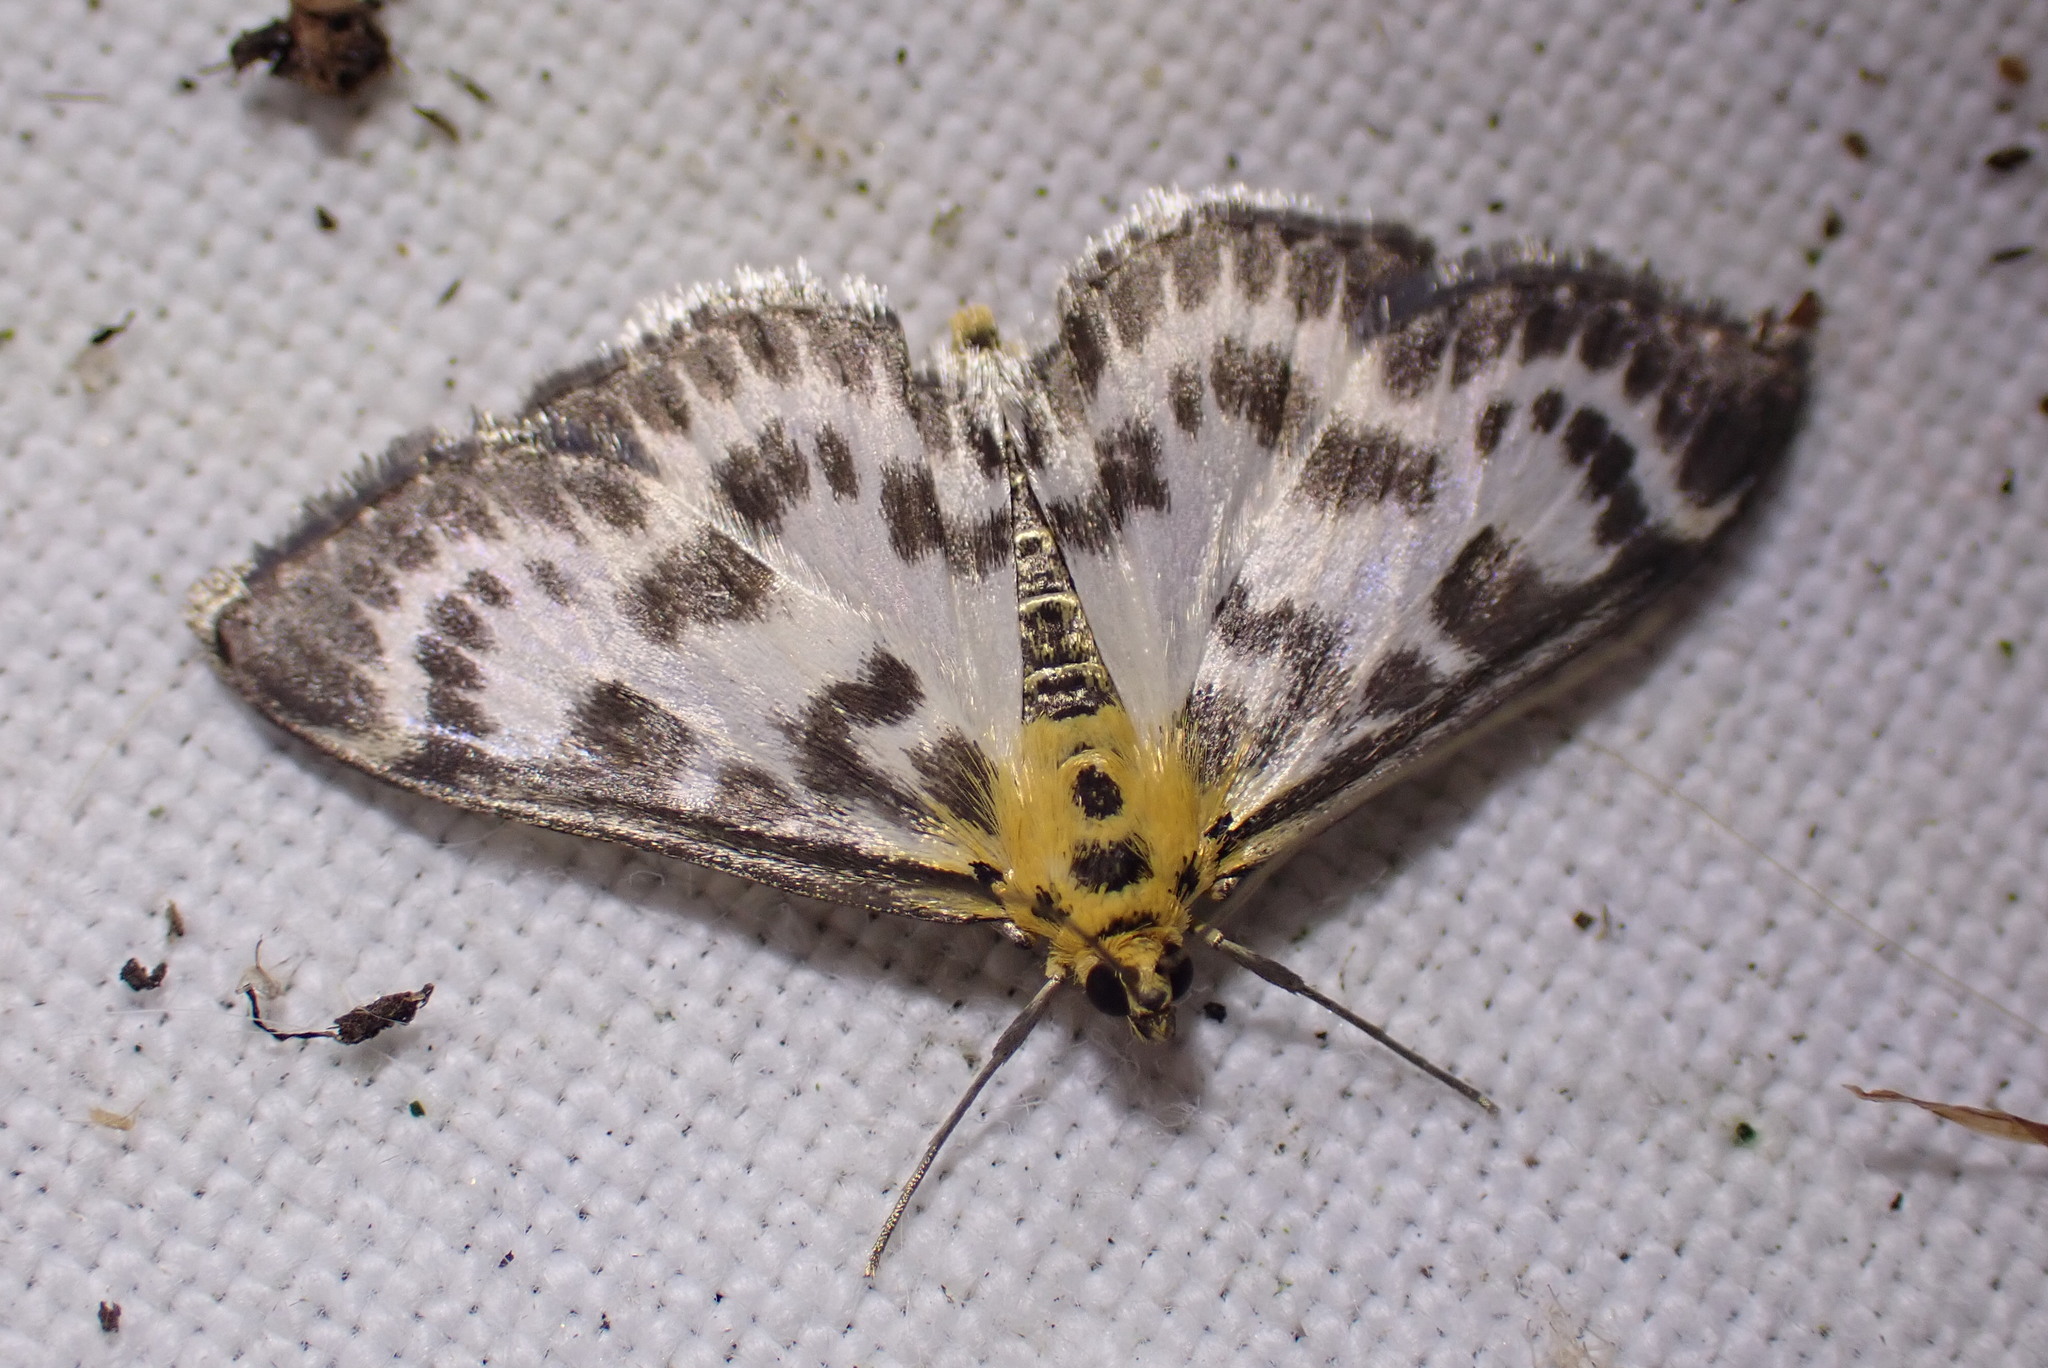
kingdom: Animalia
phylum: Arthropoda
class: Insecta
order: Lepidoptera
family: Crambidae
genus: Anania
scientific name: Anania hortulata
